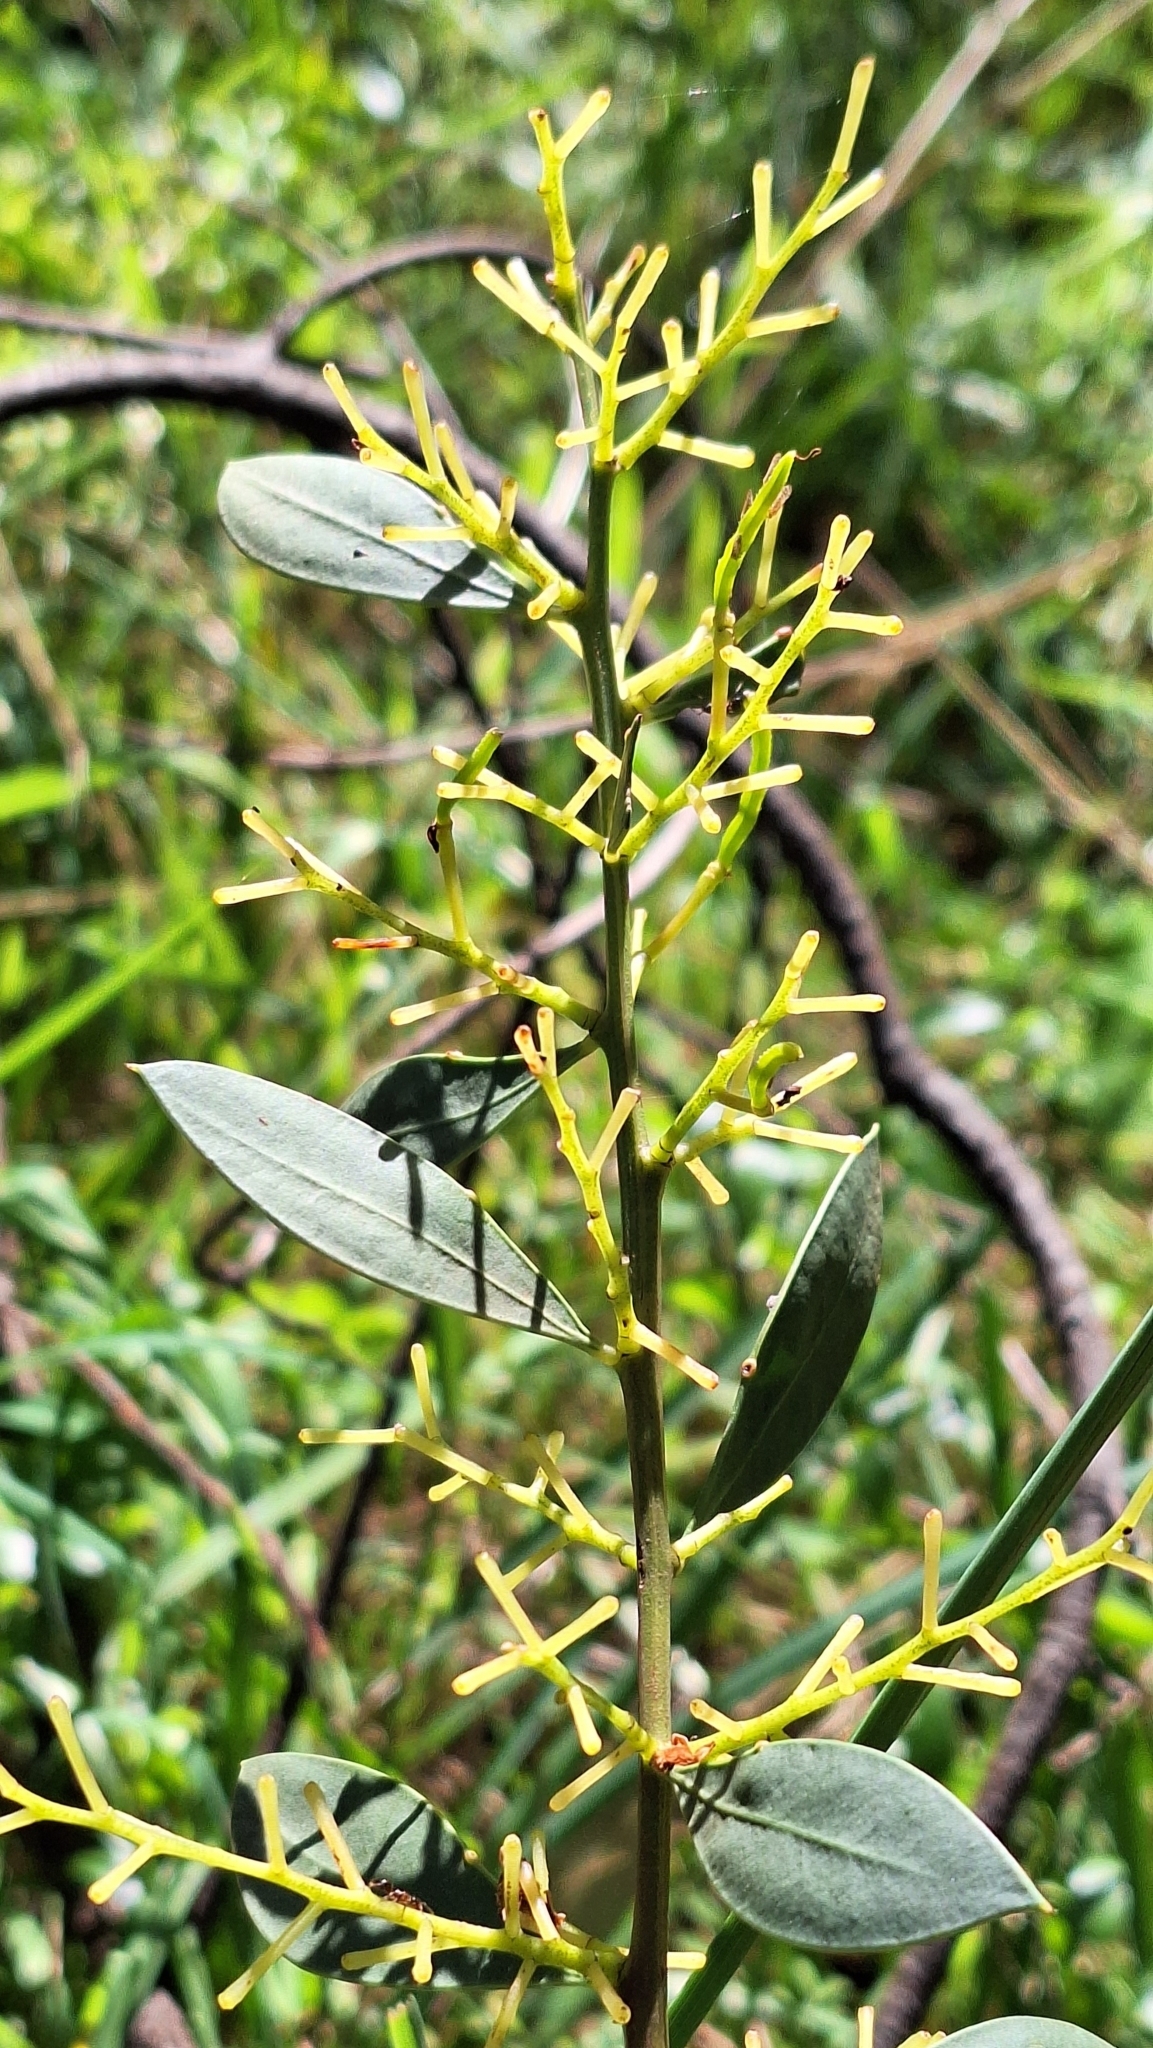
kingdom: Plantae
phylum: Tracheophyta
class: Magnoliopsida
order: Fabales
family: Fabaceae
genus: Acacia
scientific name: Acacia myrtifolia
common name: Myrtle wattle
